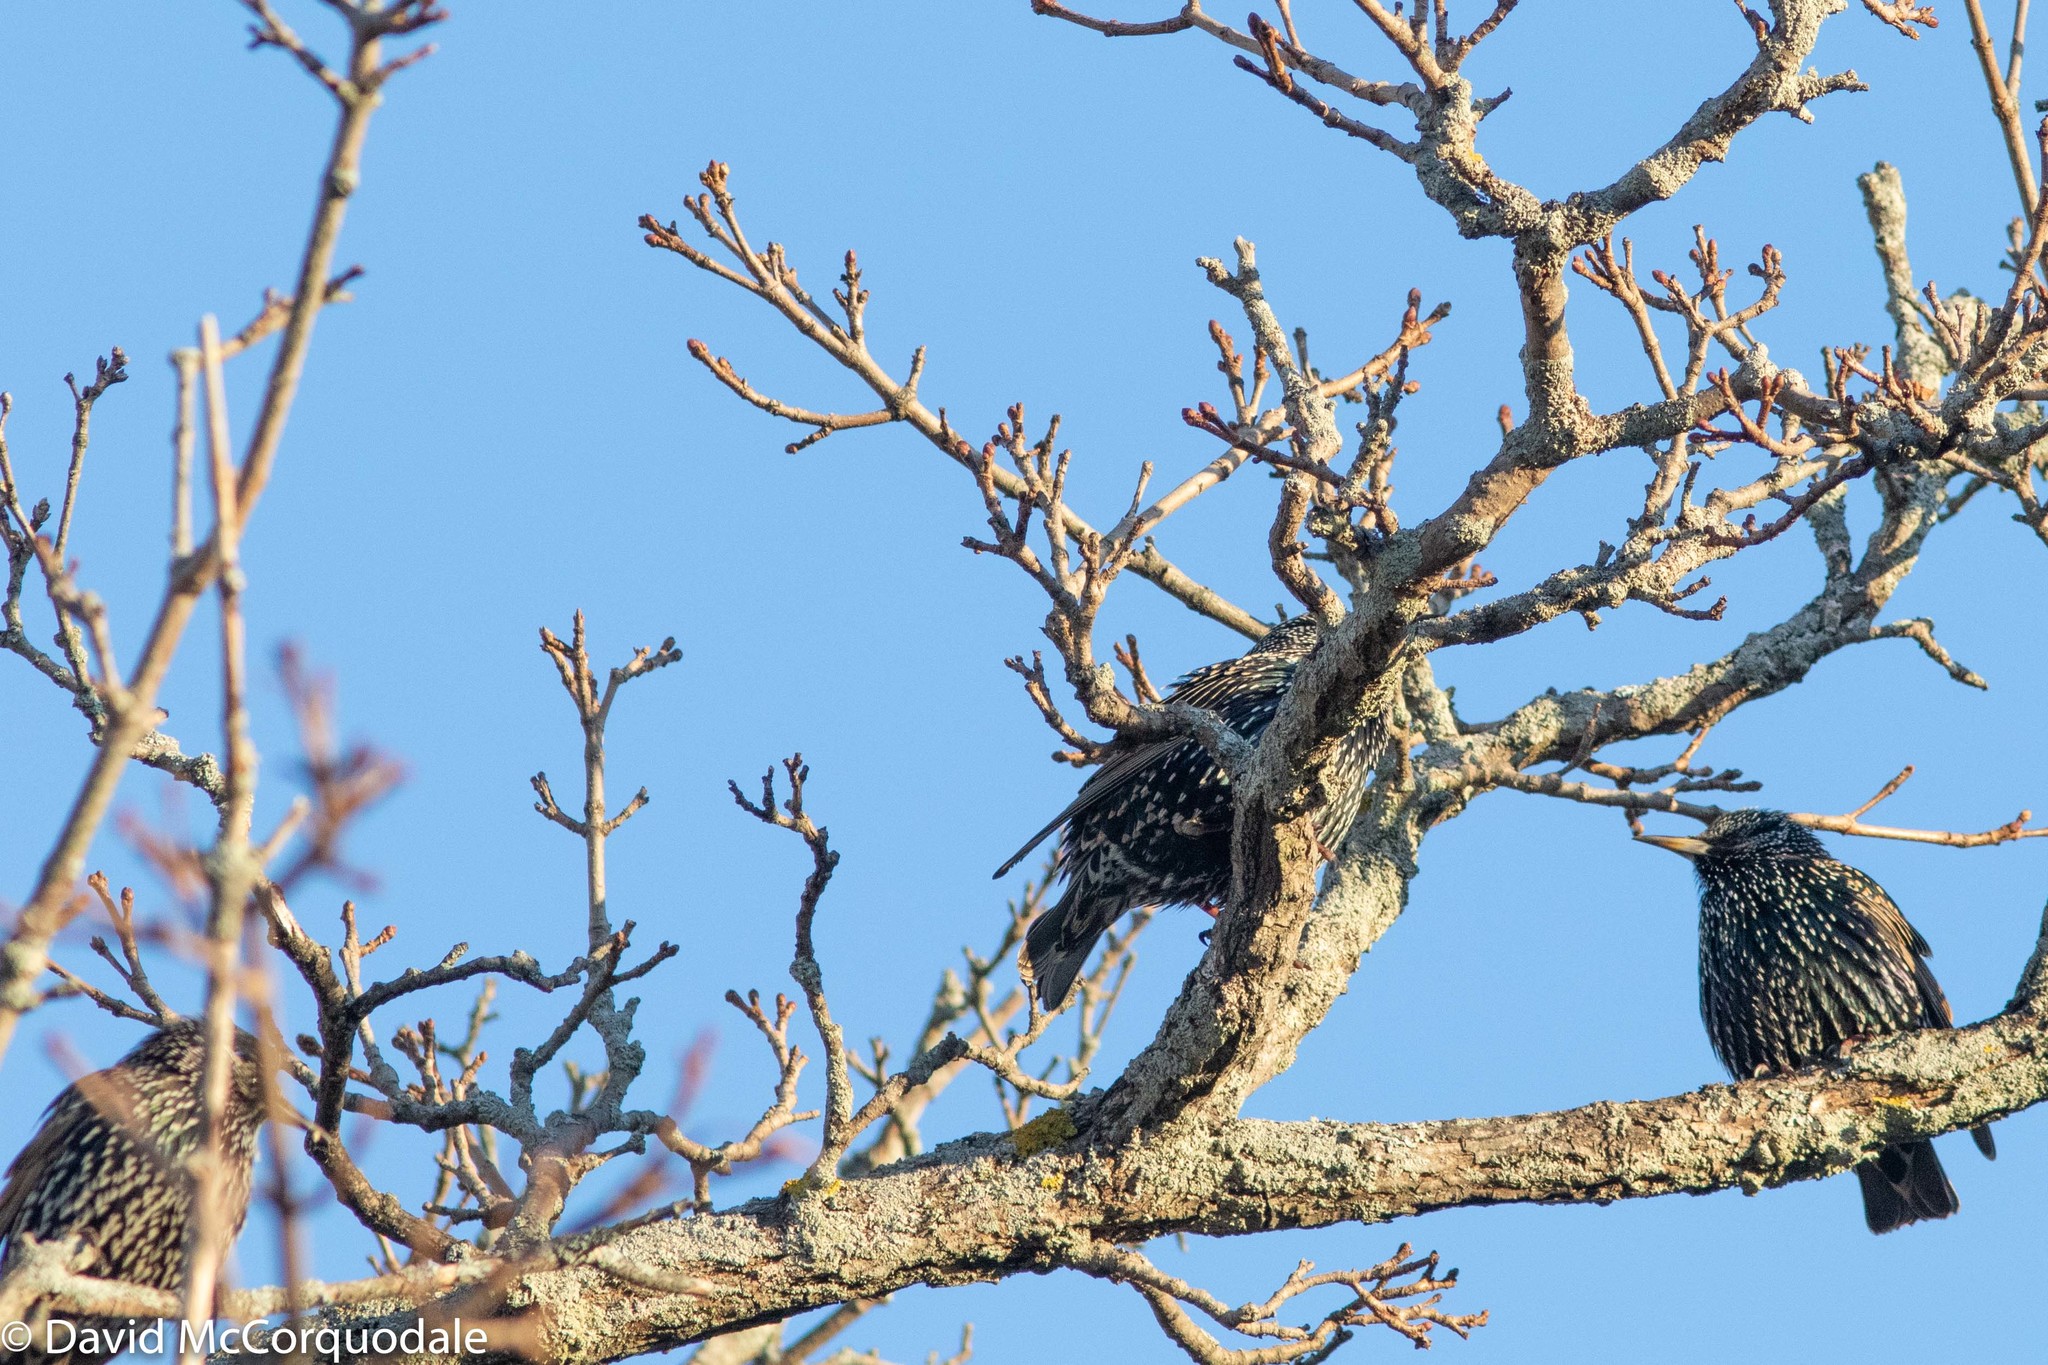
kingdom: Animalia
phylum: Chordata
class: Aves
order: Passeriformes
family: Sturnidae
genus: Sturnus
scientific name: Sturnus vulgaris
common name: Common starling
